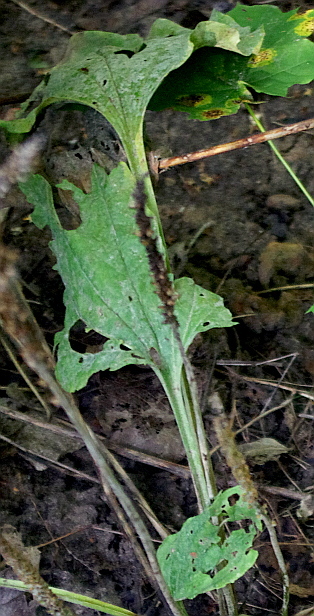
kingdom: Plantae
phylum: Tracheophyta
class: Magnoliopsida
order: Lamiales
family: Plantaginaceae
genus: Plantago
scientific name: Plantago major
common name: Common plantain
